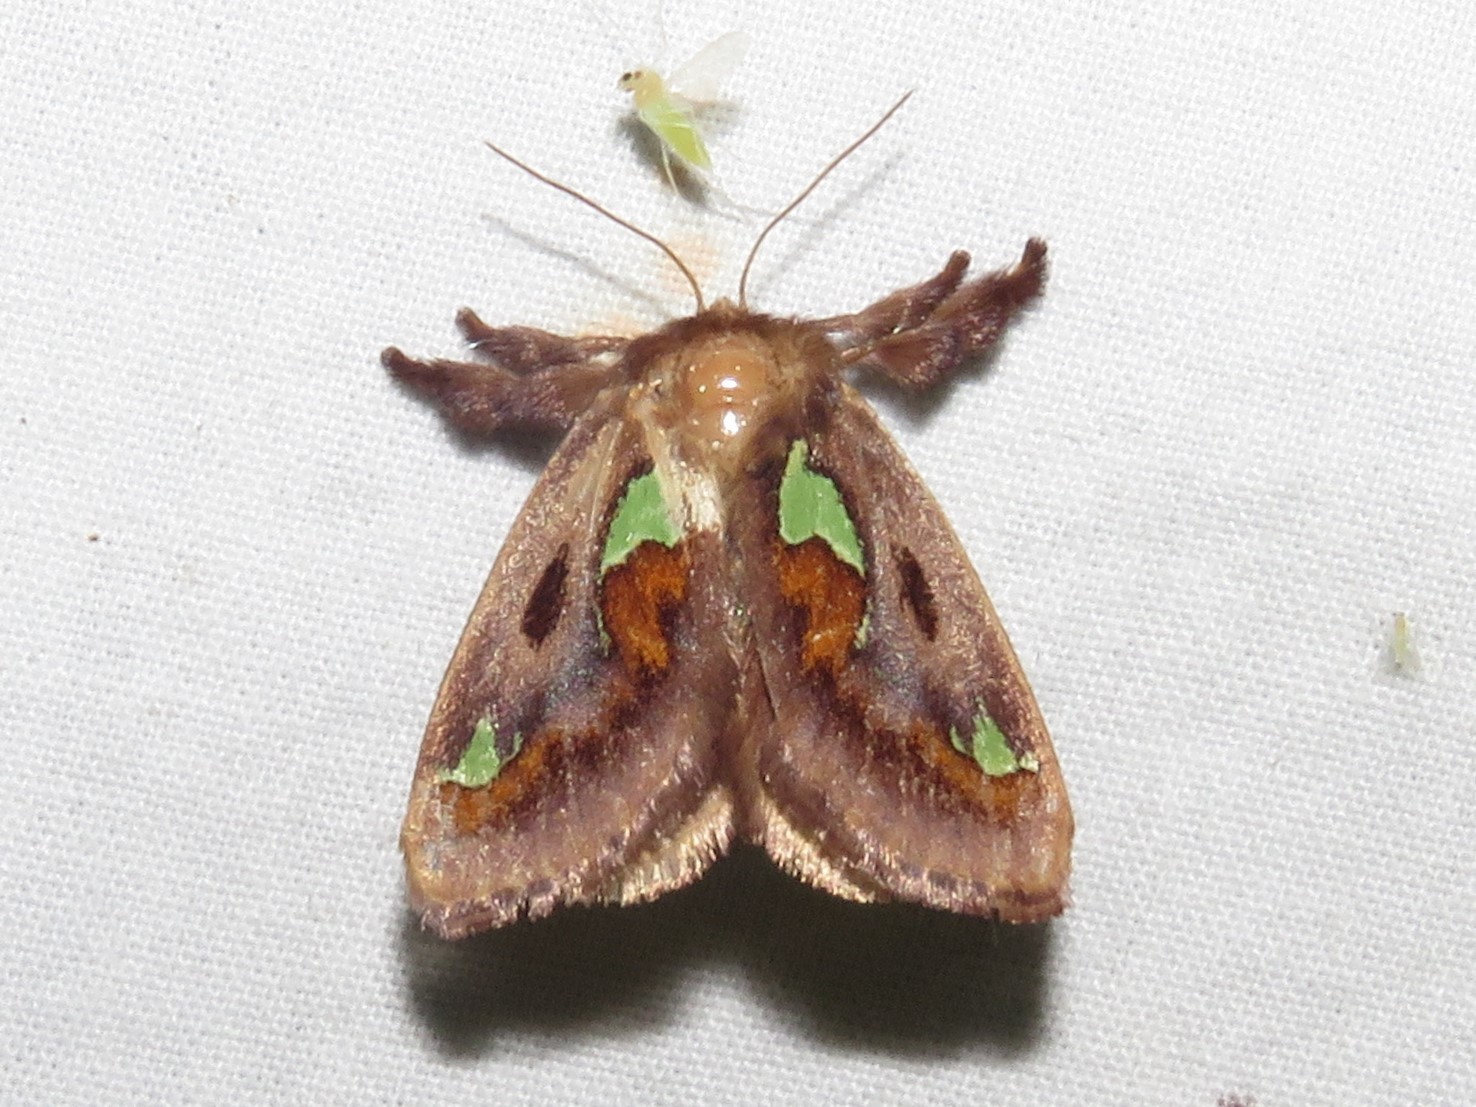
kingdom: Animalia
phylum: Arthropoda
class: Insecta
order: Lepidoptera
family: Limacodidae
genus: Euclea
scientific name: Euclea delphinii
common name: Spiny oak-slug moth
